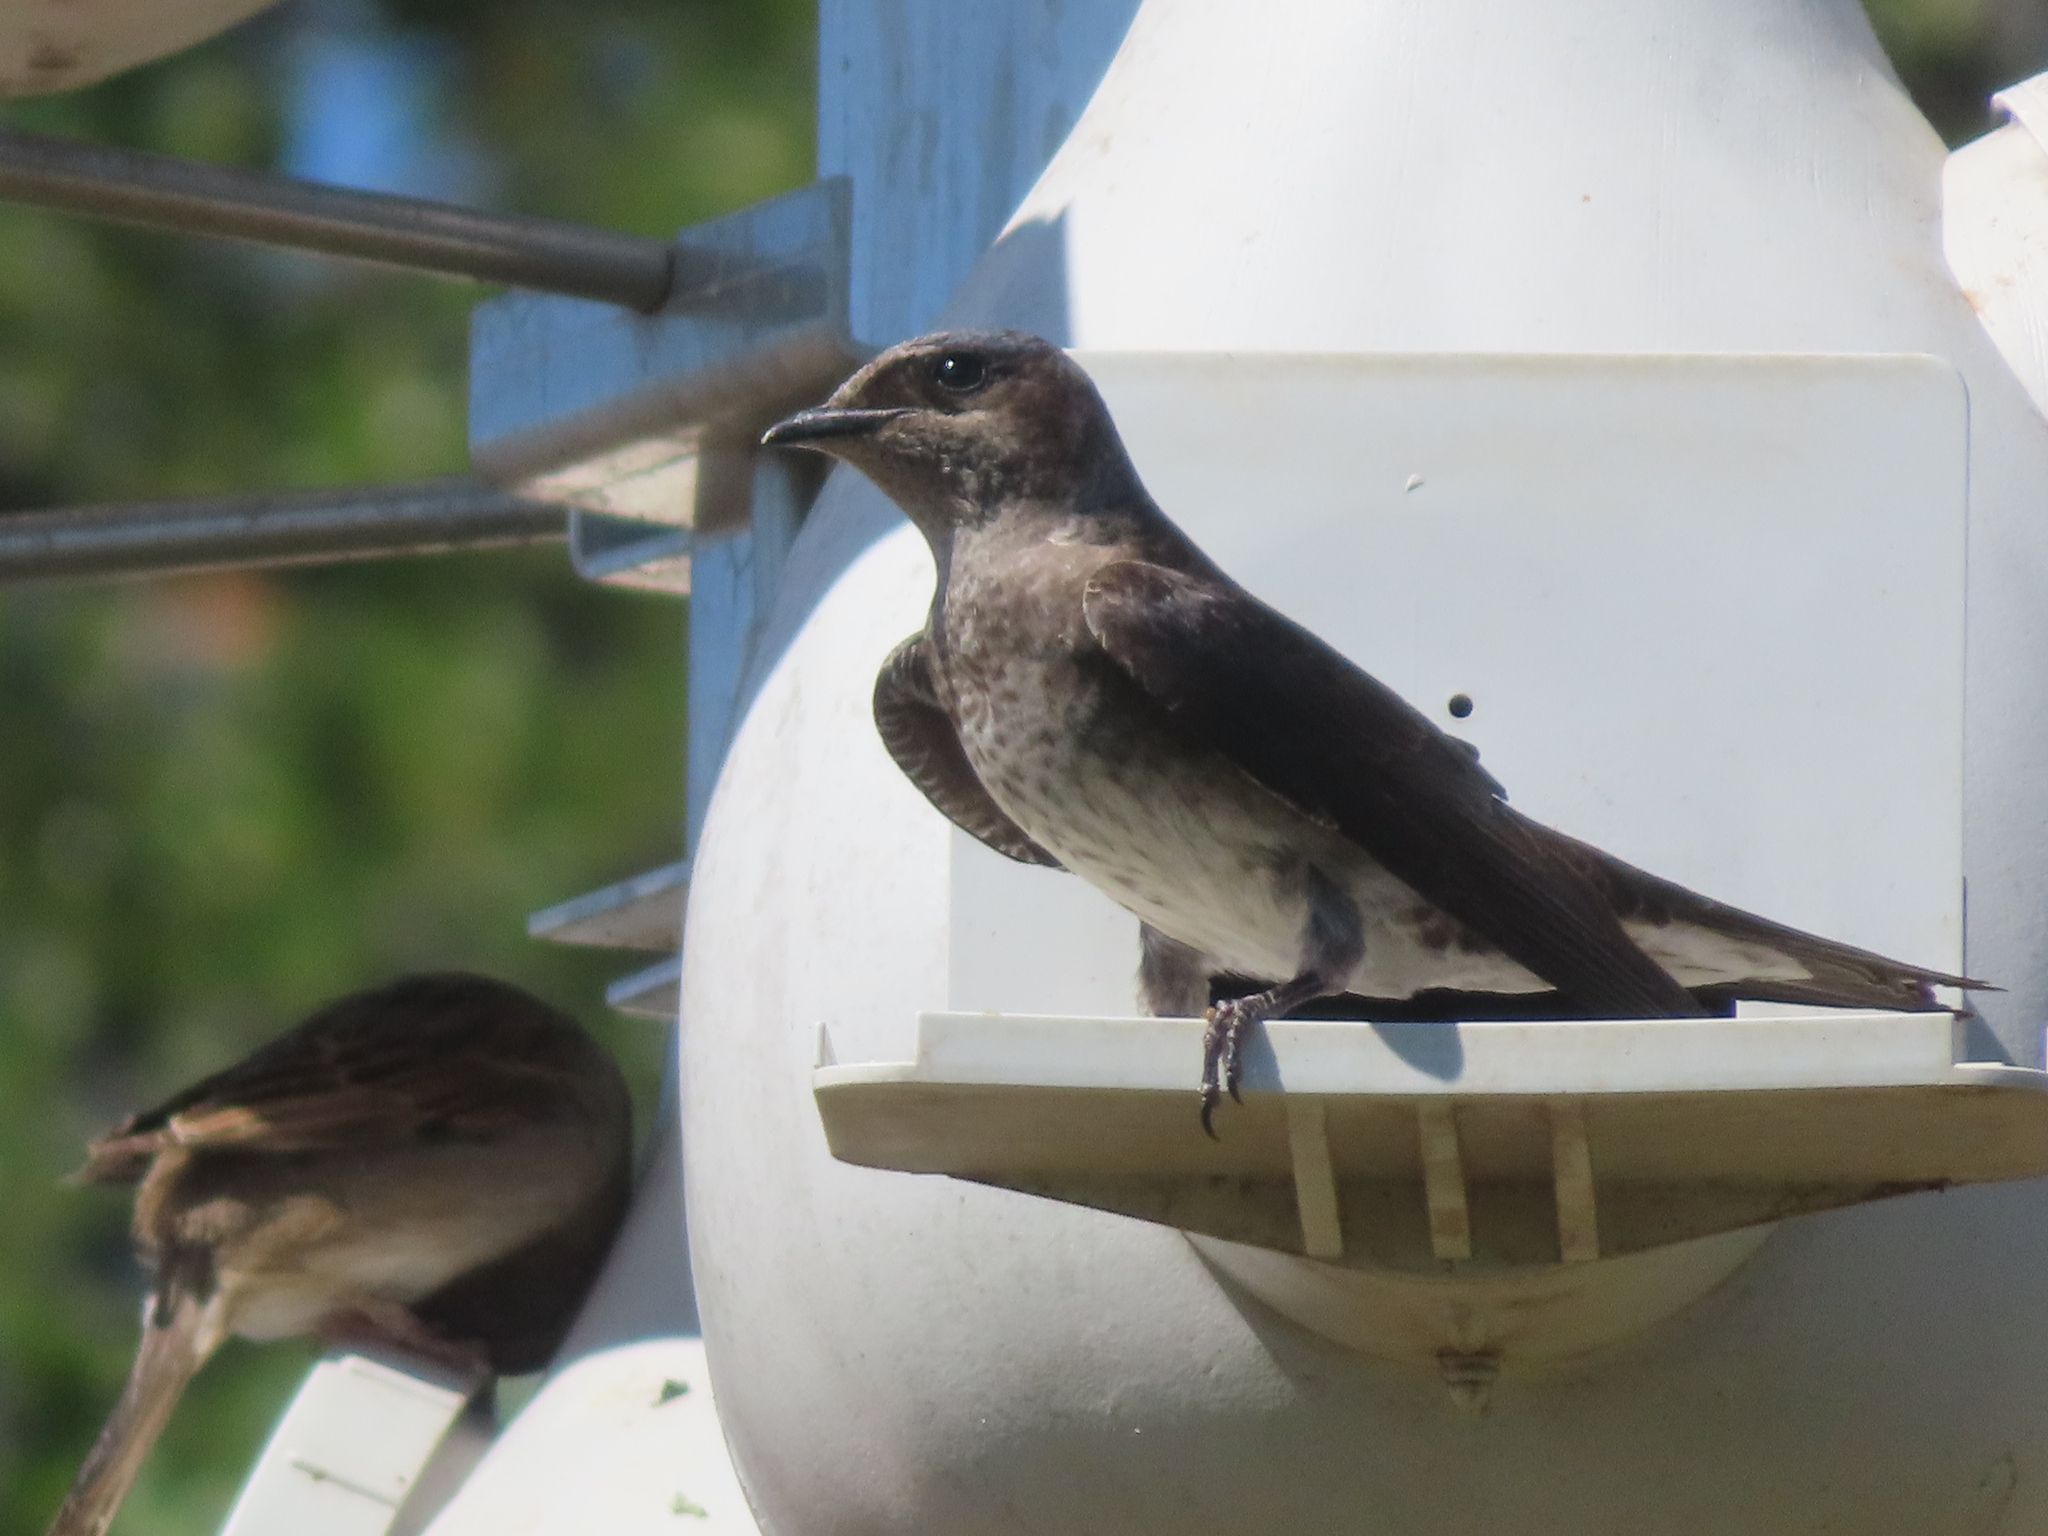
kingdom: Animalia
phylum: Chordata
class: Aves
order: Passeriformes
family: Hirundinidae
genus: Progne
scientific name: Progne subis
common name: Purple martin
